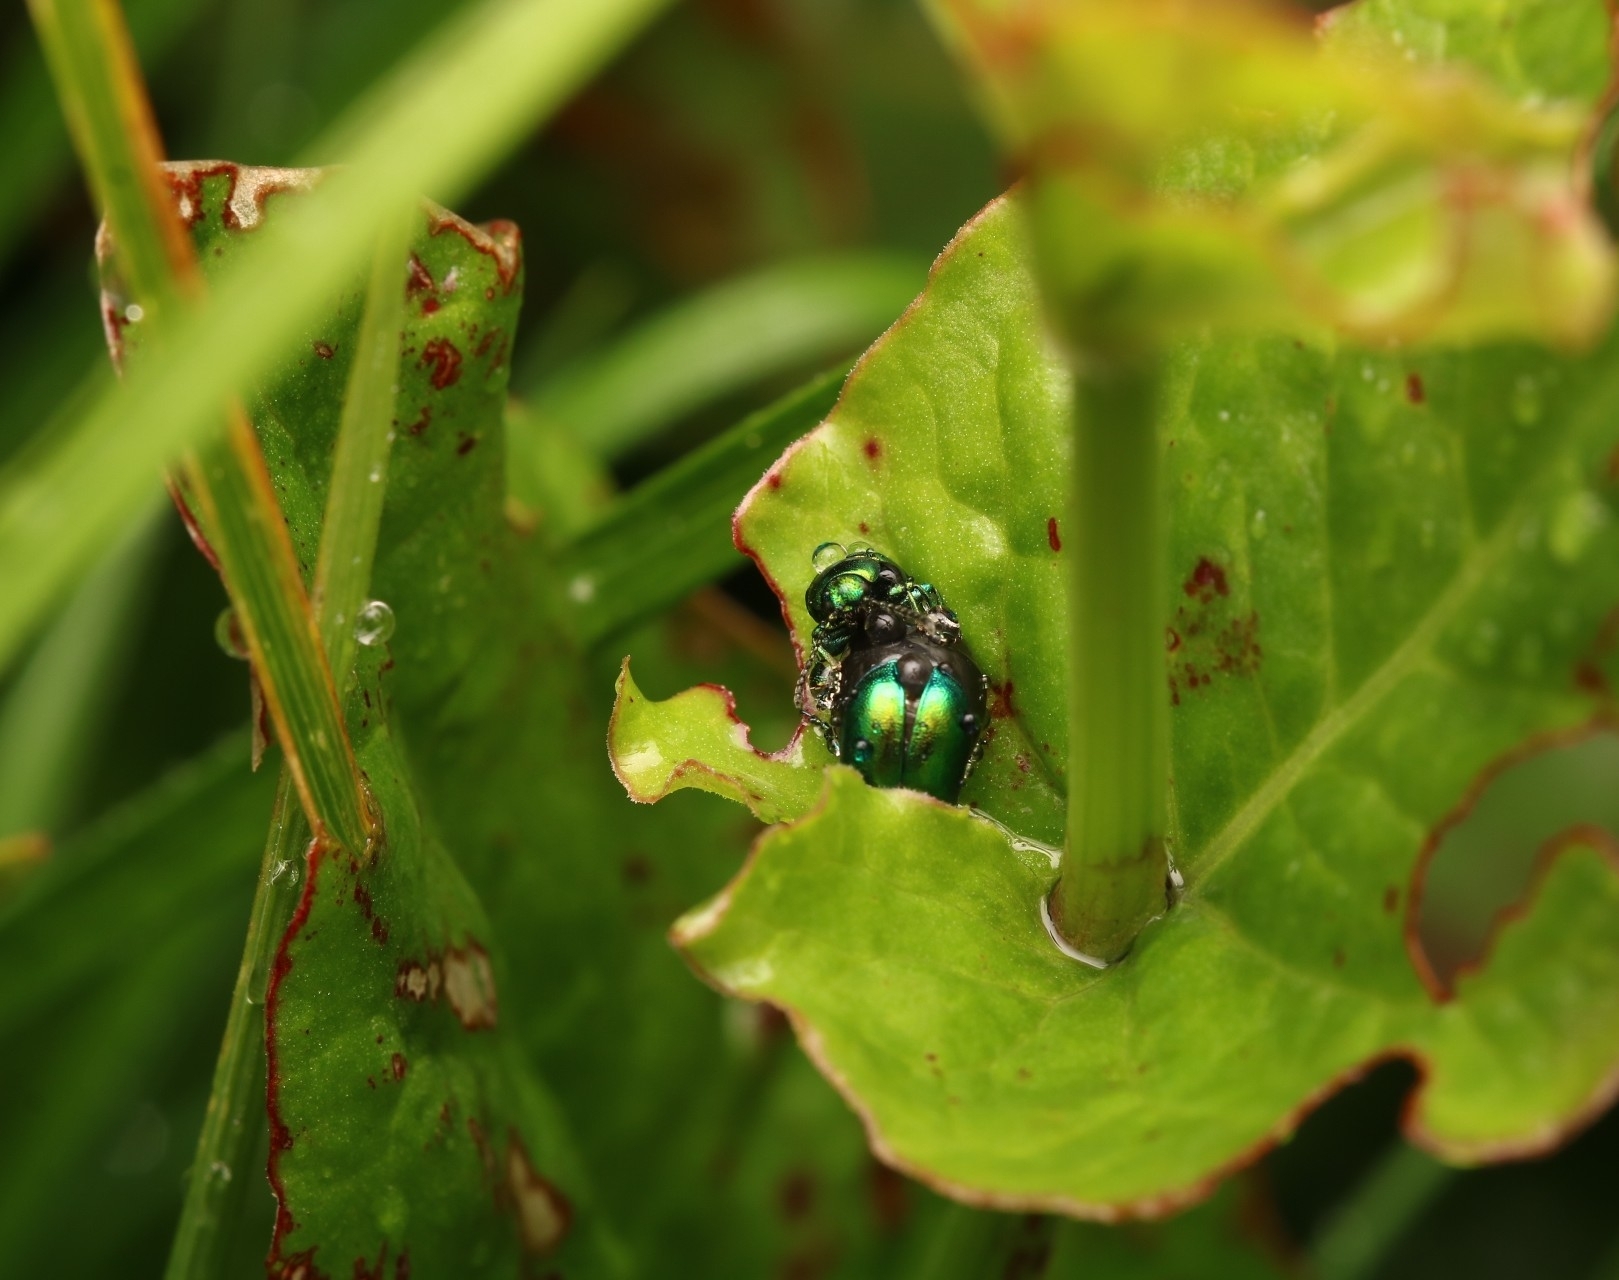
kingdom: Animalia
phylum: Arthropoda
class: Insecta
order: Coleoptera
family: Chrysomelidae
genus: Gastrophysa
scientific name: Gastrophysa viridula
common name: Green dock beetle
